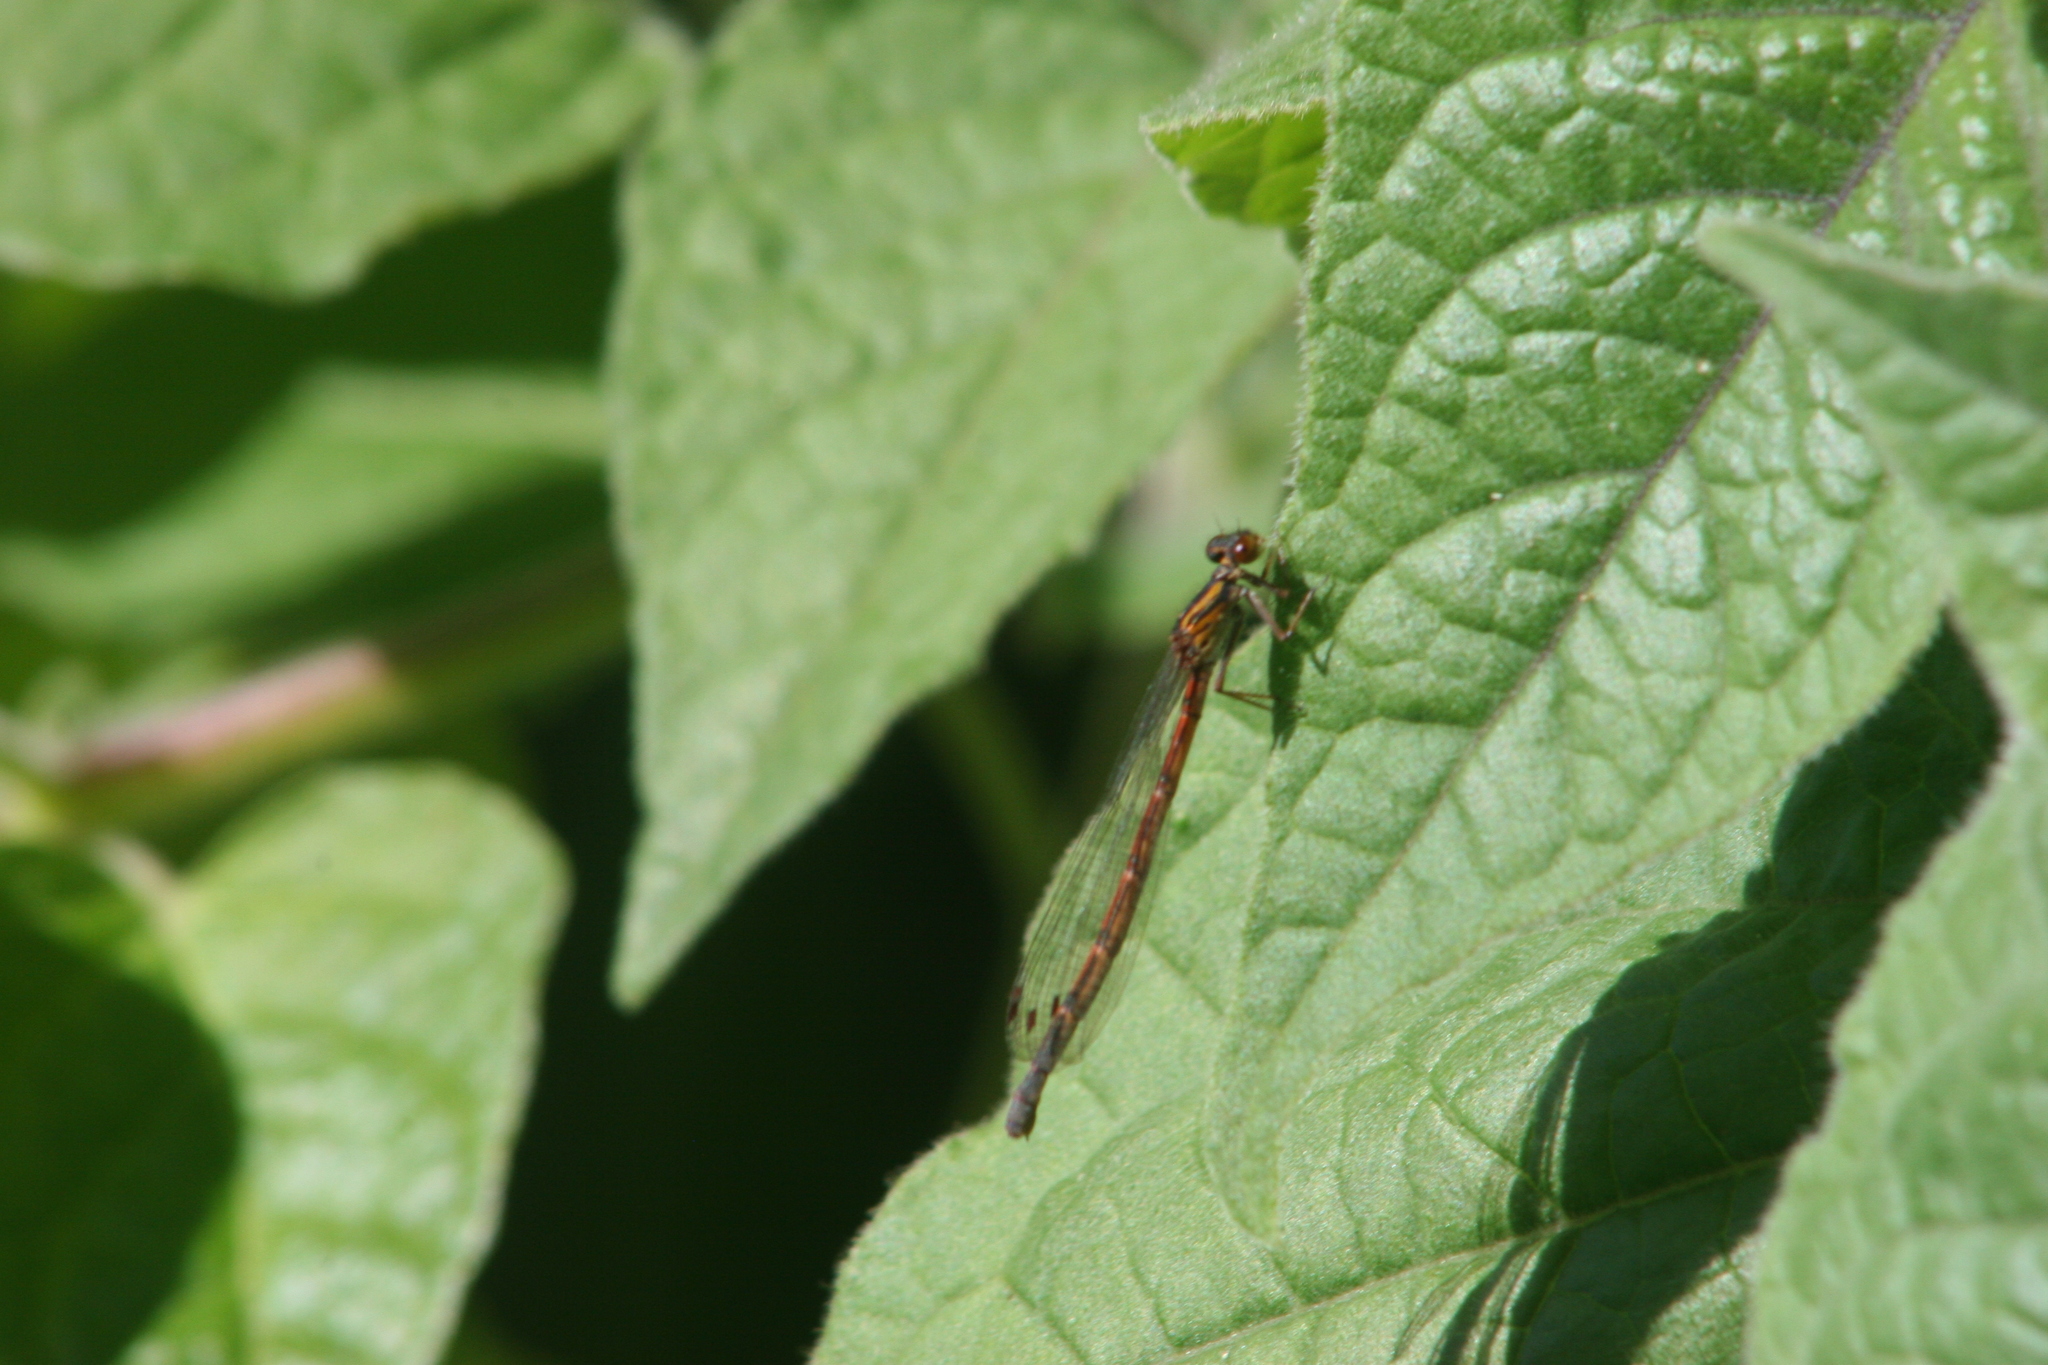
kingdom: Animalia
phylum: Arthropoda
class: Insecta
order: Odonata
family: Coenagrionidae
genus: Xanthocnemis
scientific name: Xanthocnemis zealandica
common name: Common redcoat damselfly
